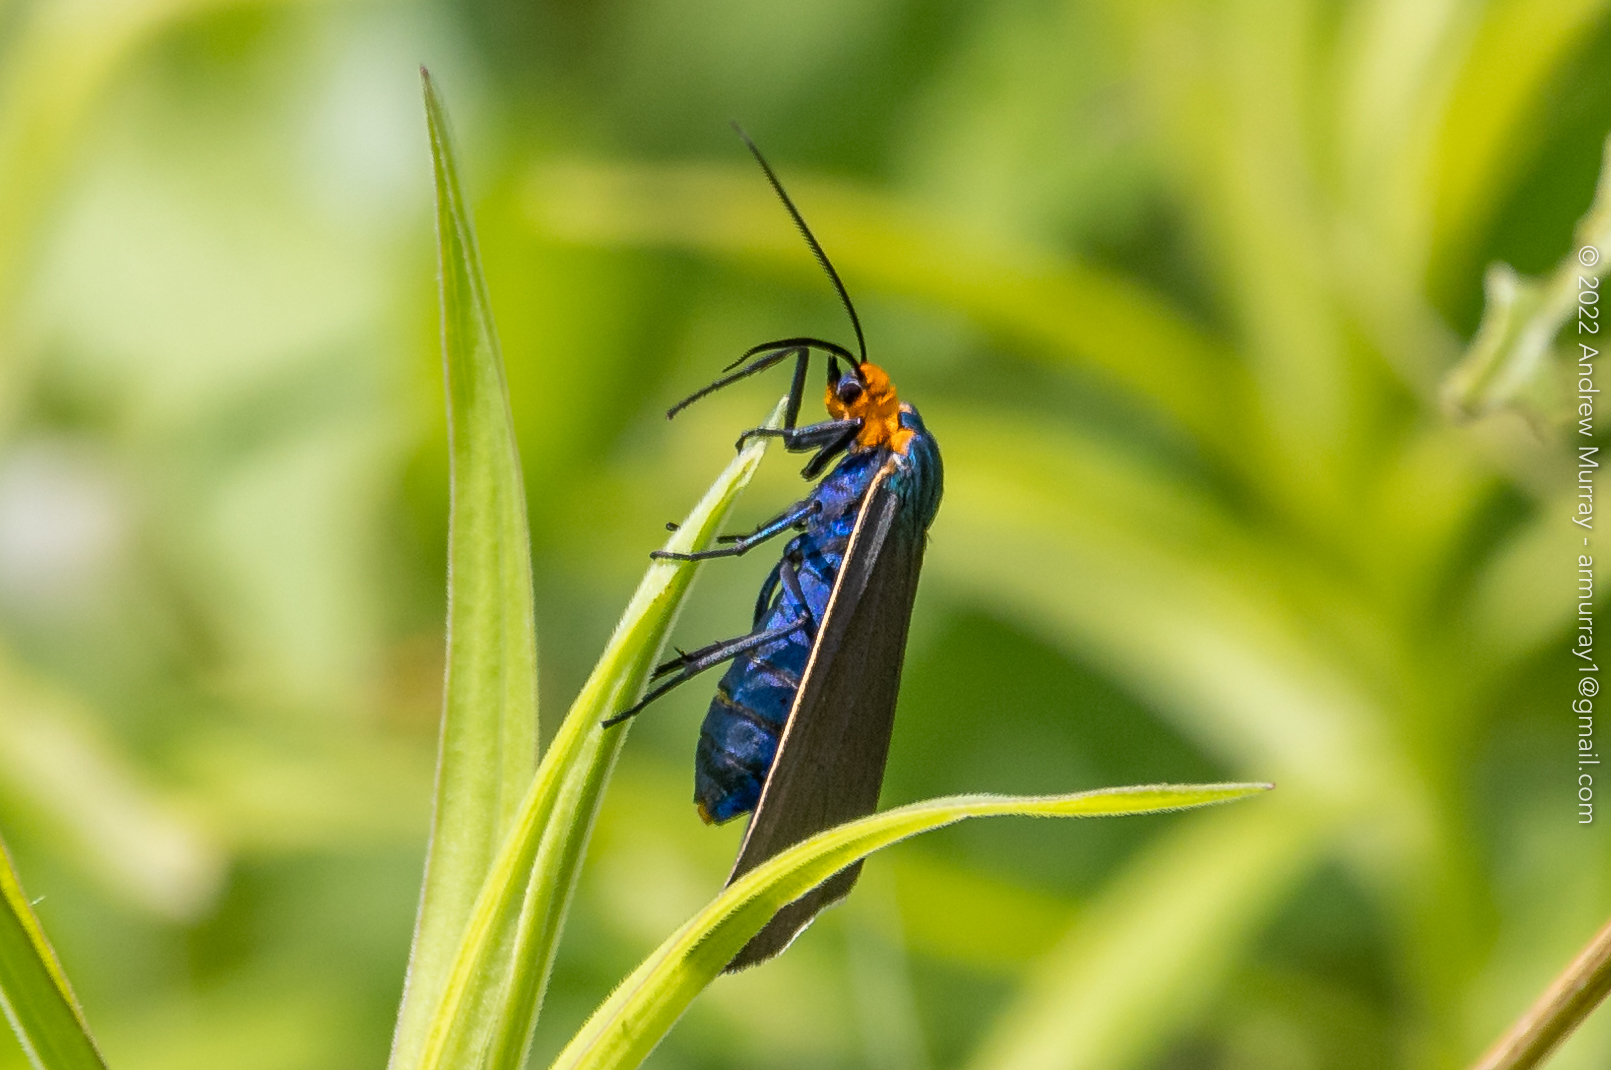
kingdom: Animalia
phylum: Arthropoda
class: Insecta
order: Lepidoptera
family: Erebidae
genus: Ctenucha
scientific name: Ctenucha virginica
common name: Virginia ctenucha moth
